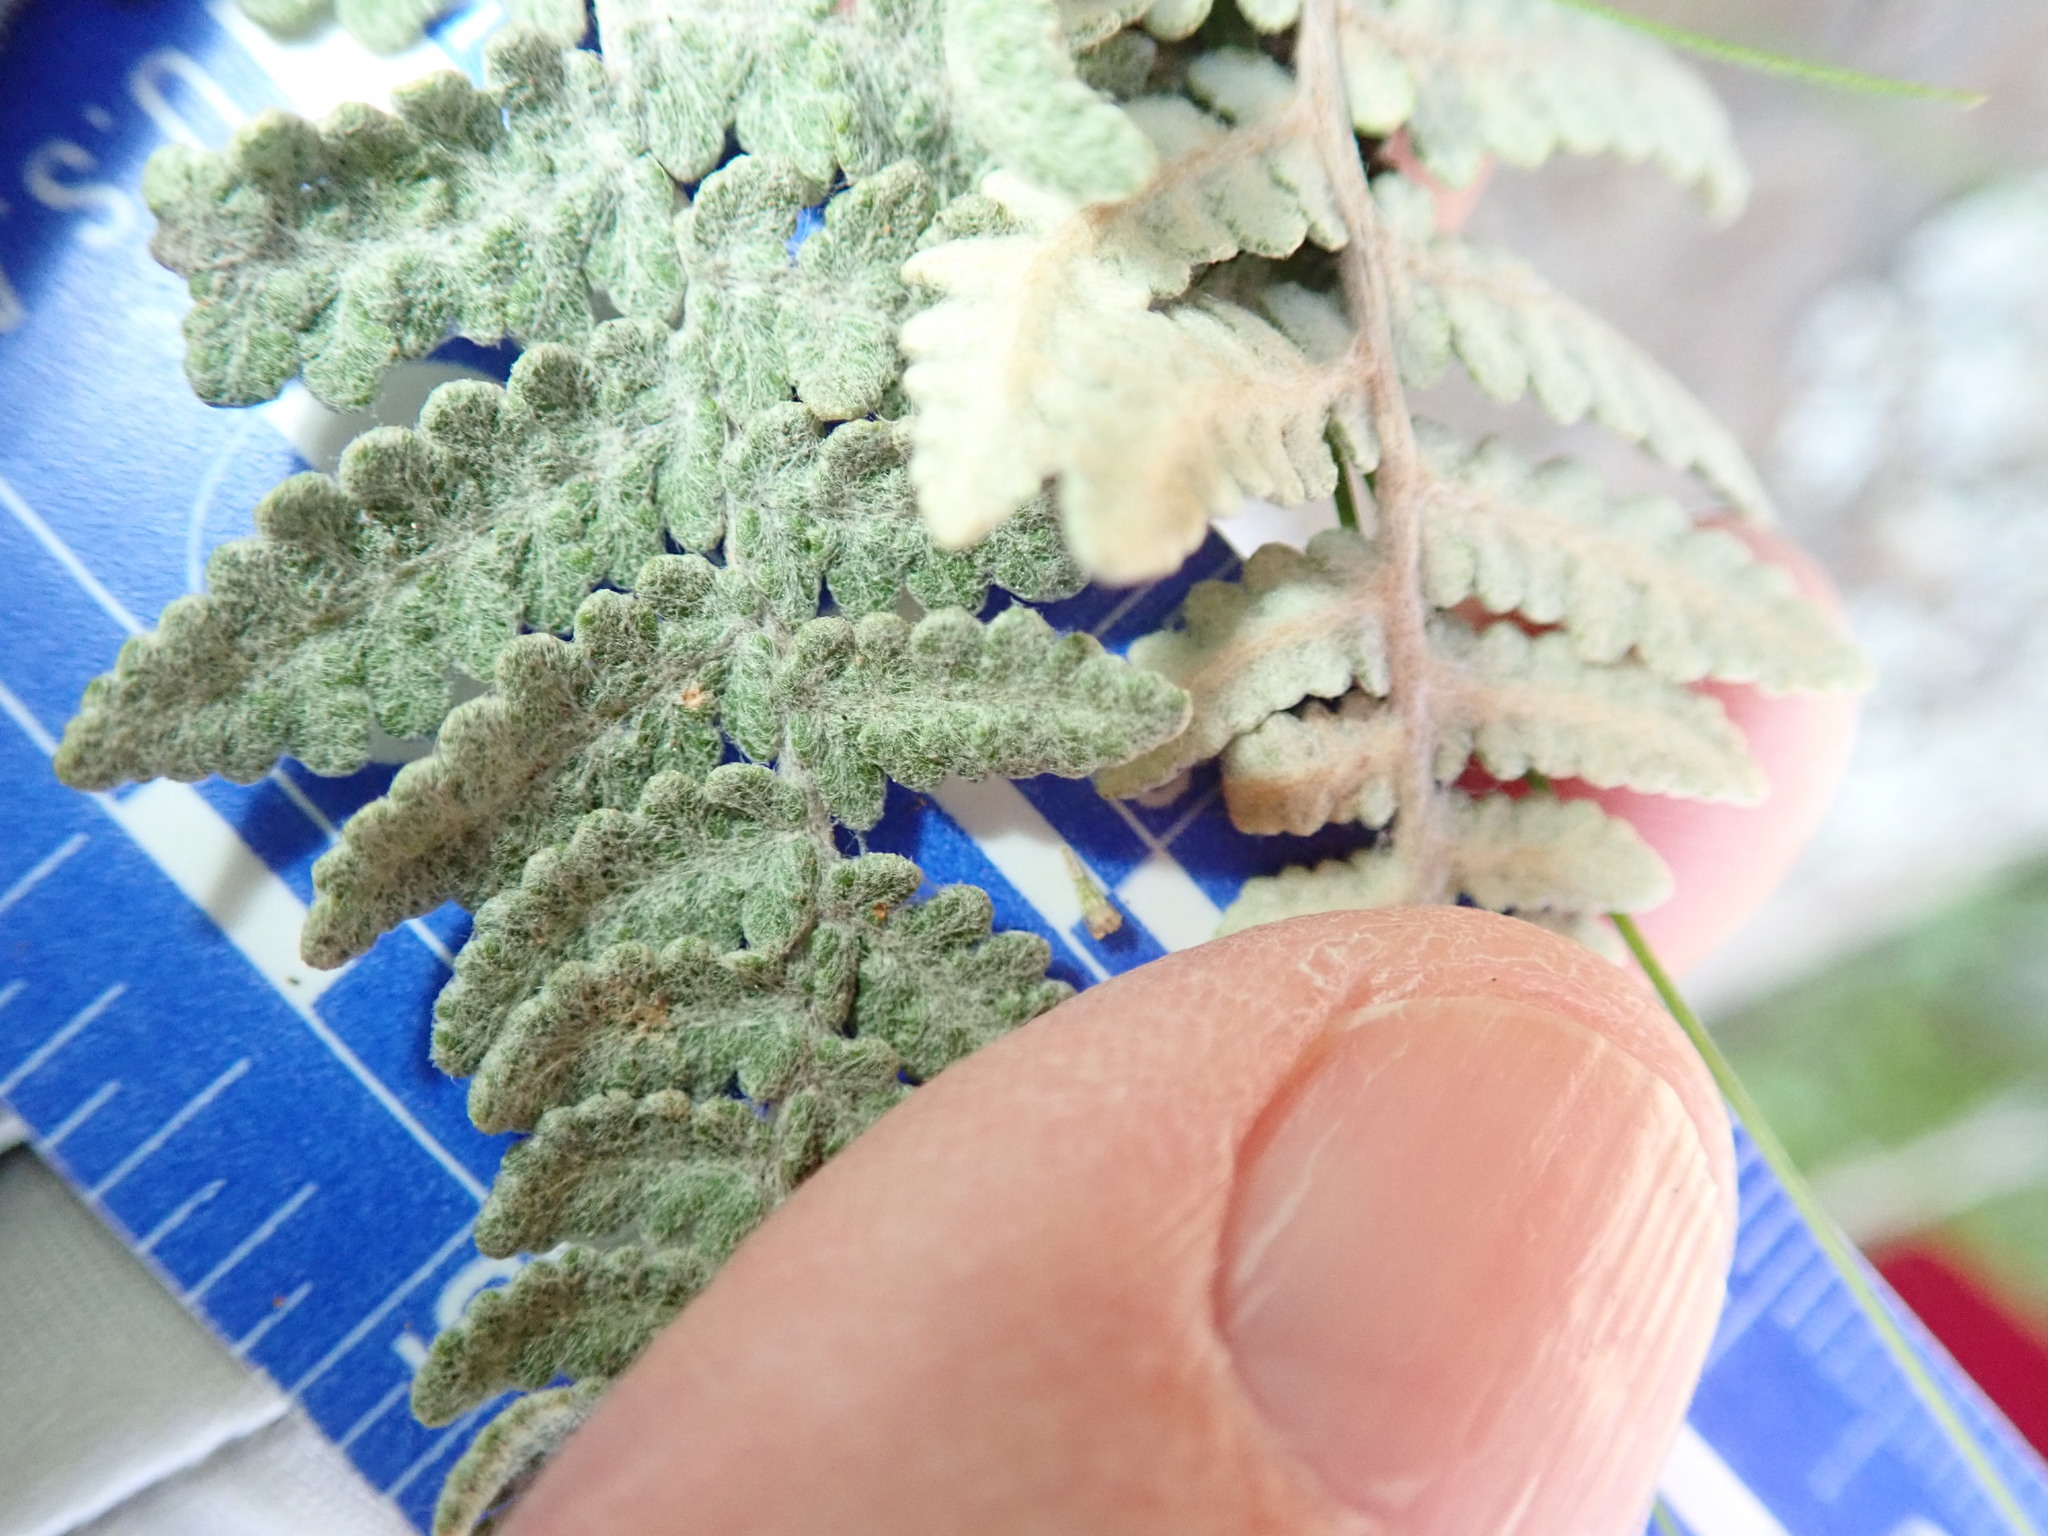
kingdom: Plantae
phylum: Tracheophyta
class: Polypodiopsida
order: Polypodiales
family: Pteridaceae
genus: Myriopteris
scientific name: Myriopteris newberryi
